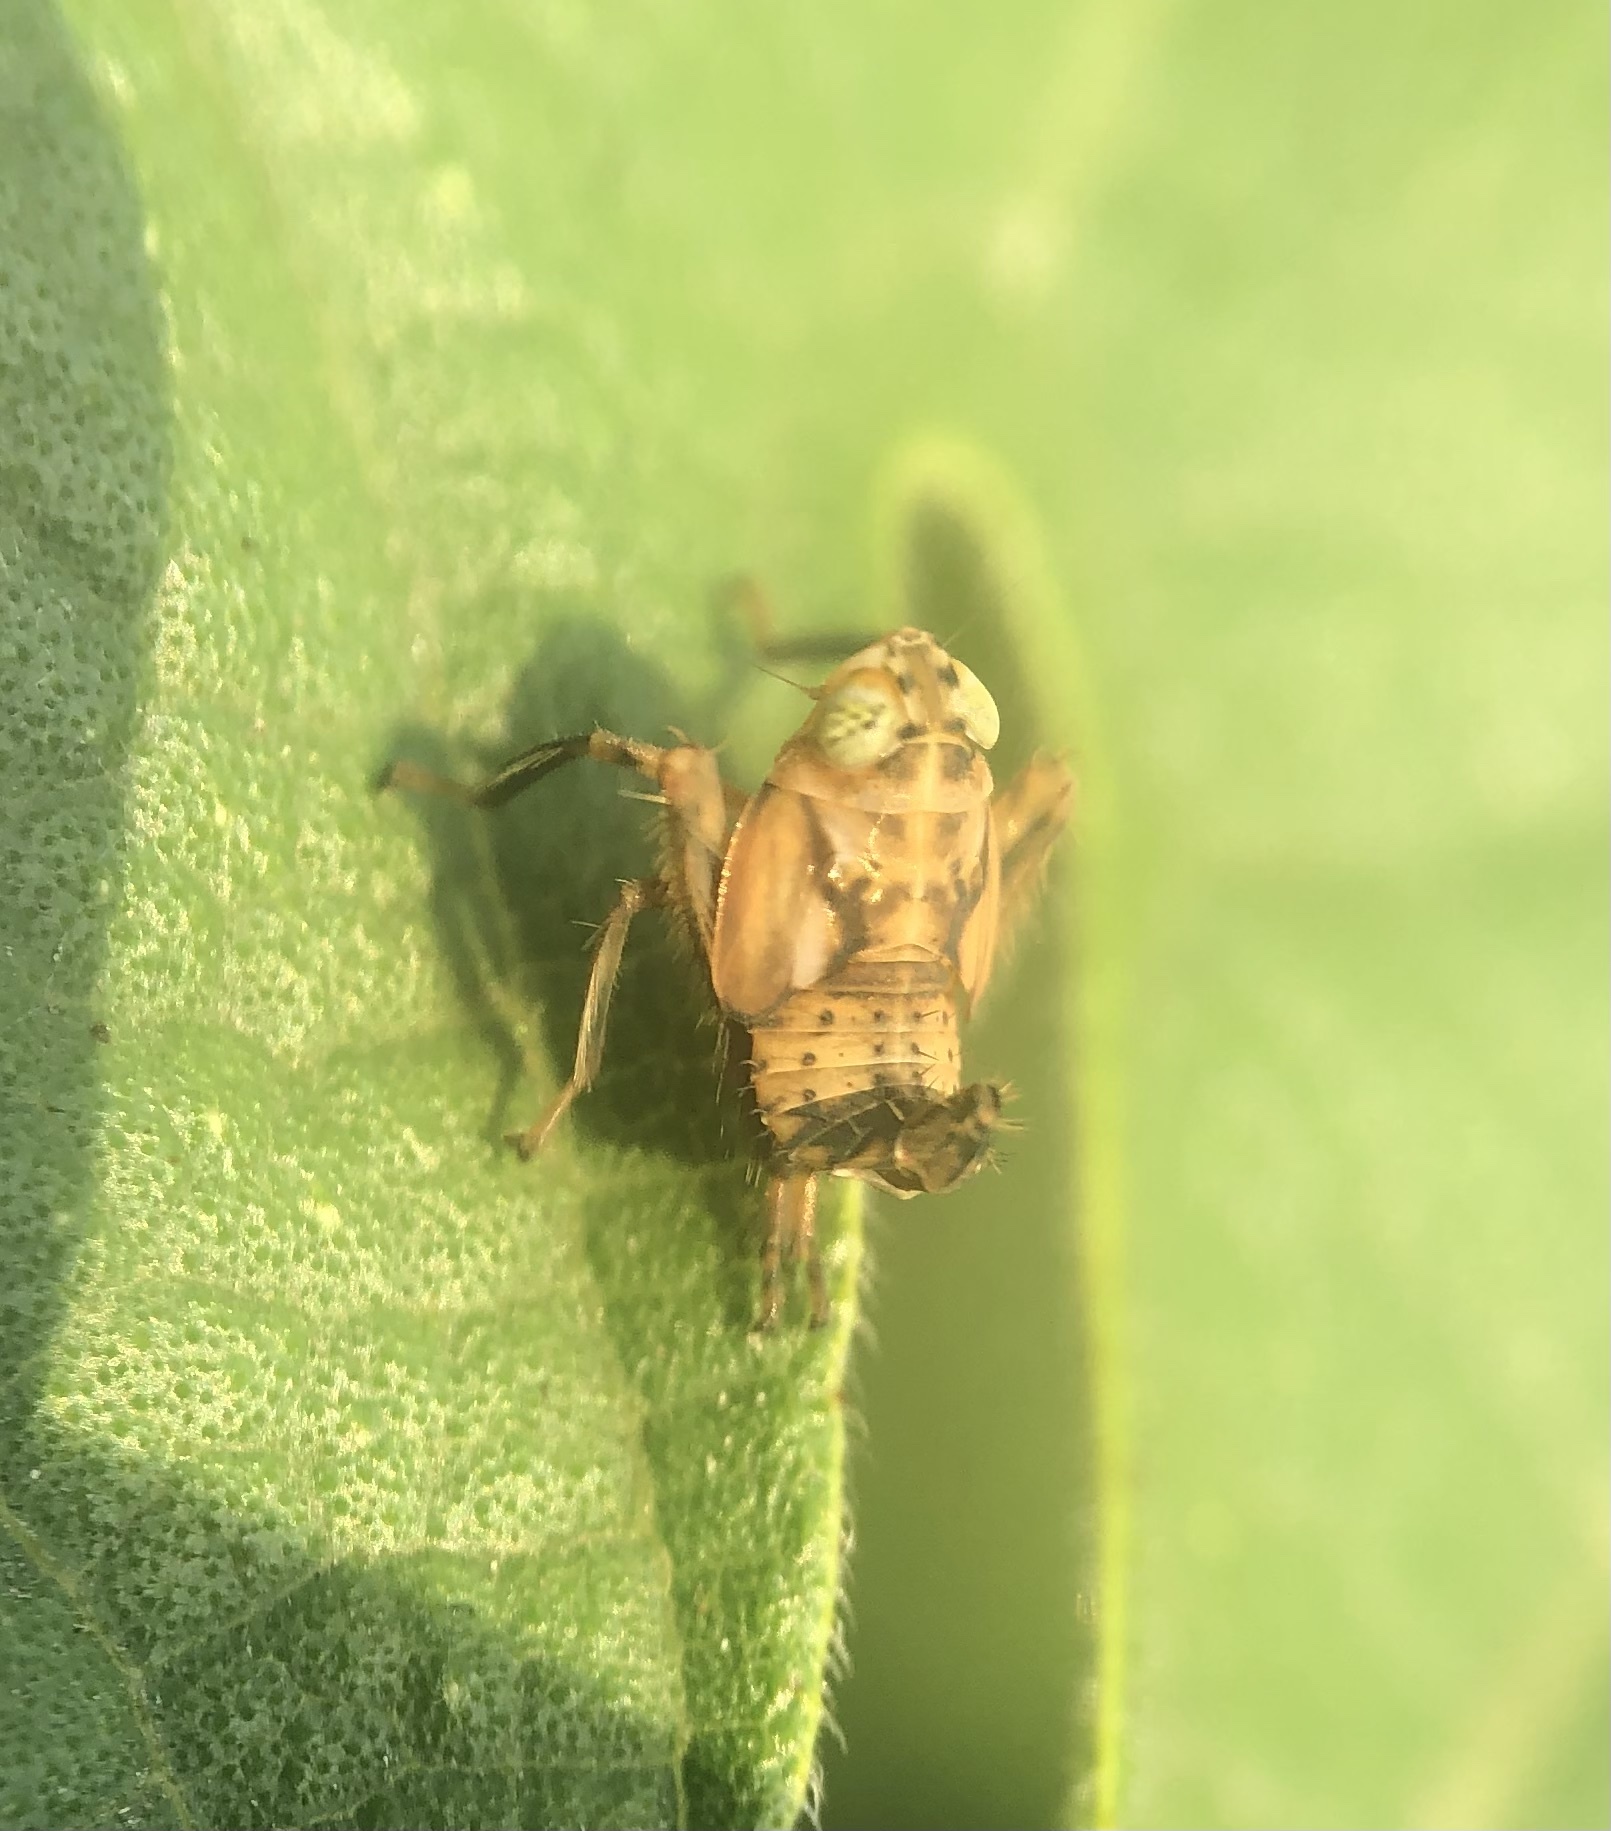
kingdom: Animalia
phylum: Arthropoda
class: Insecta
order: Hemiptera
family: Cicadellidae
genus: Jikradia
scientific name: Jikradia olitoria
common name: Coppery leafhopper
